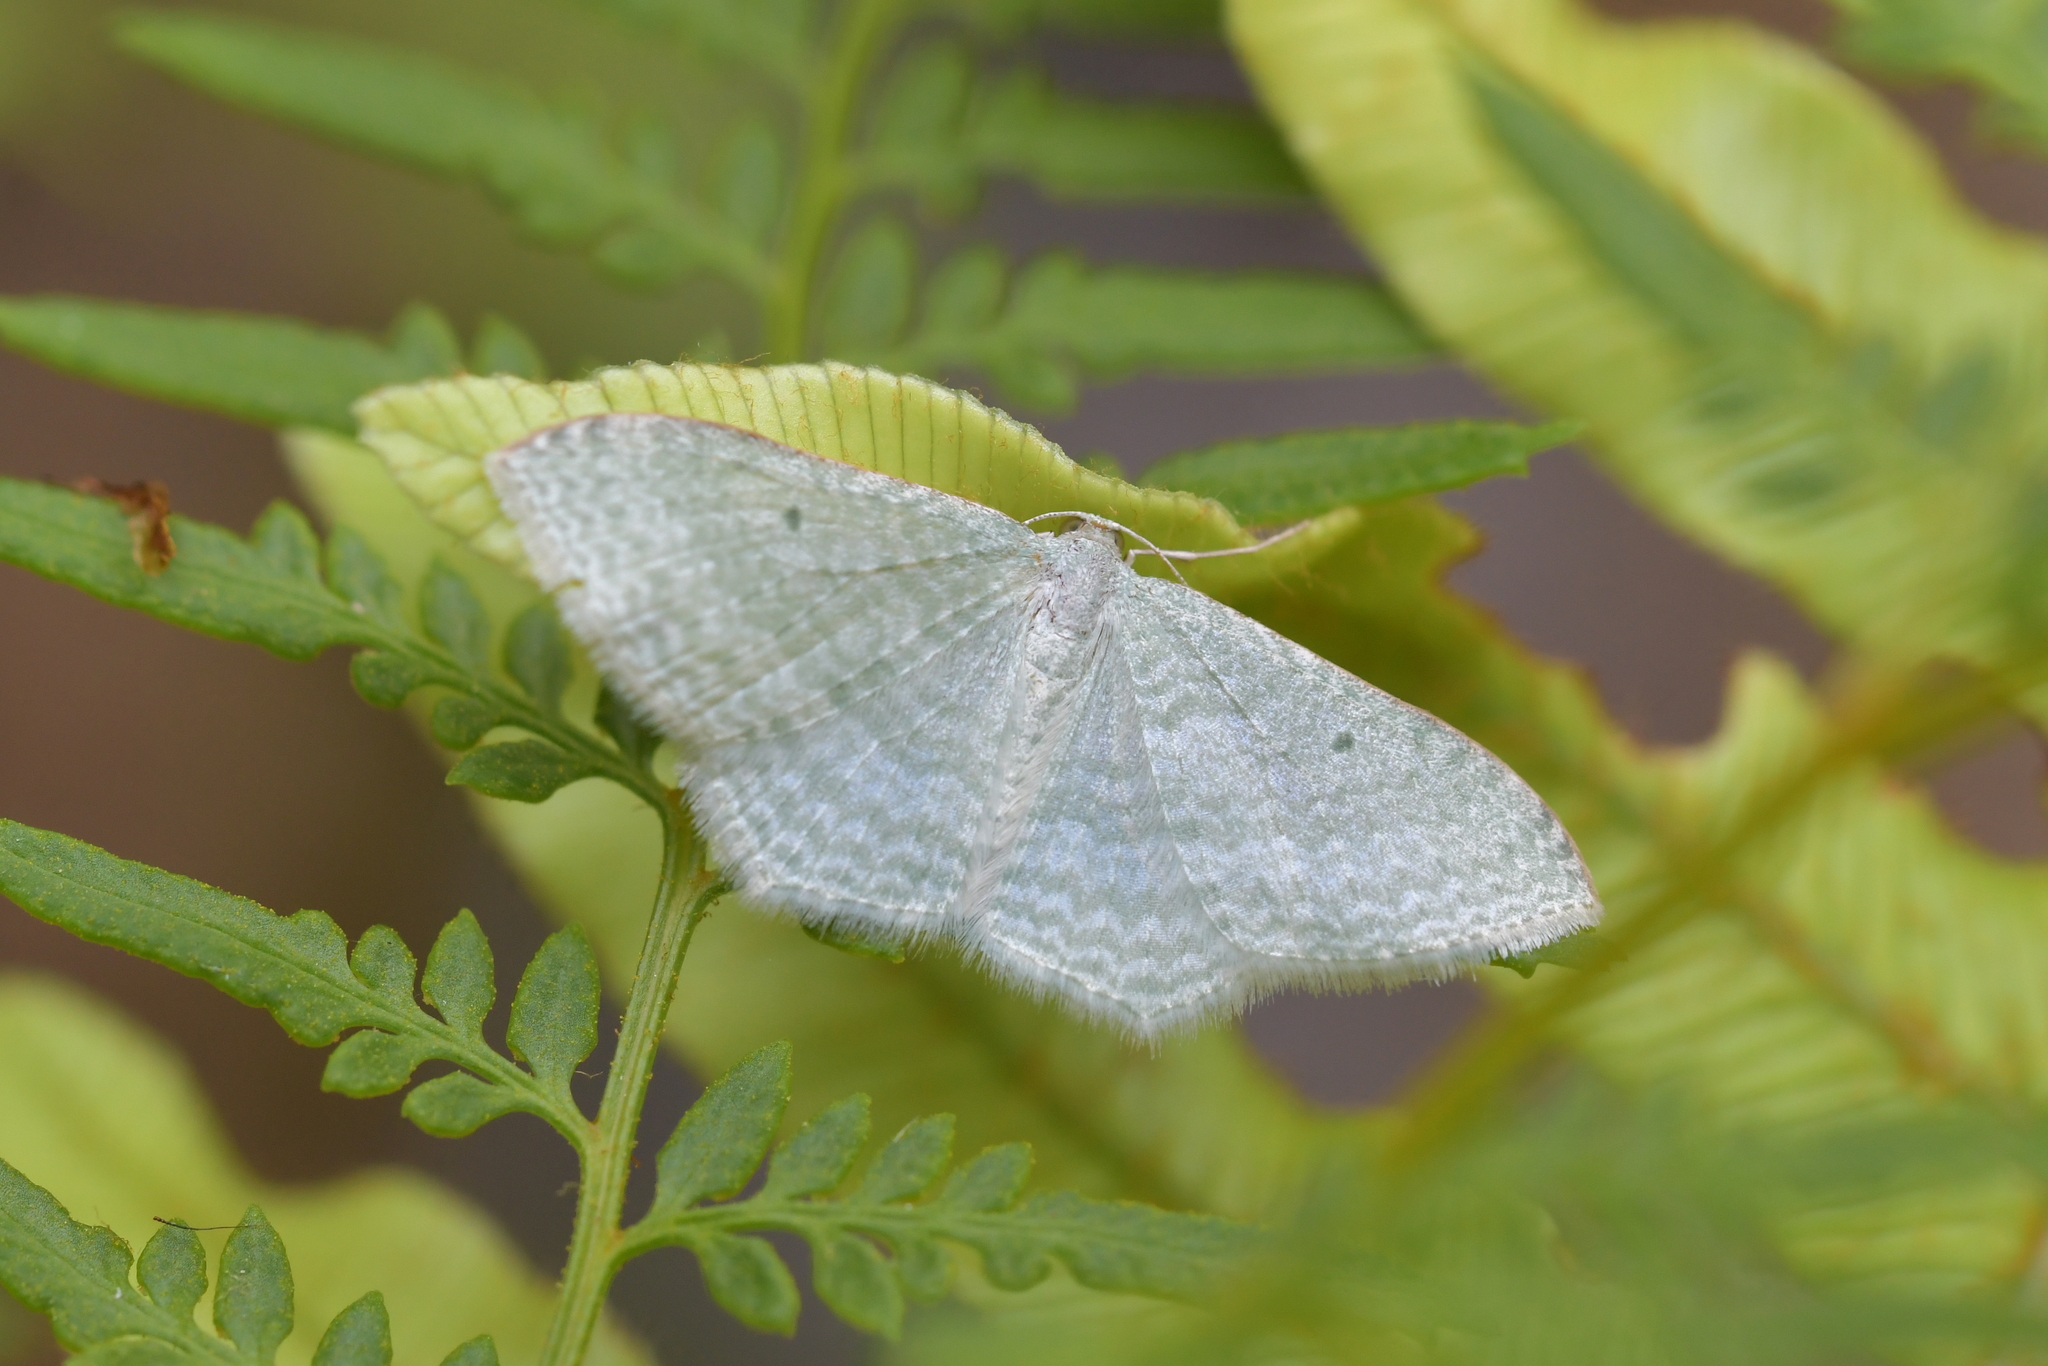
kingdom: Animalia
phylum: Arthropoda
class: Insecta
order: Lepidoptera
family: Geometridae
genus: Poecilasthena
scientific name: Poecilasthena pulchraria
